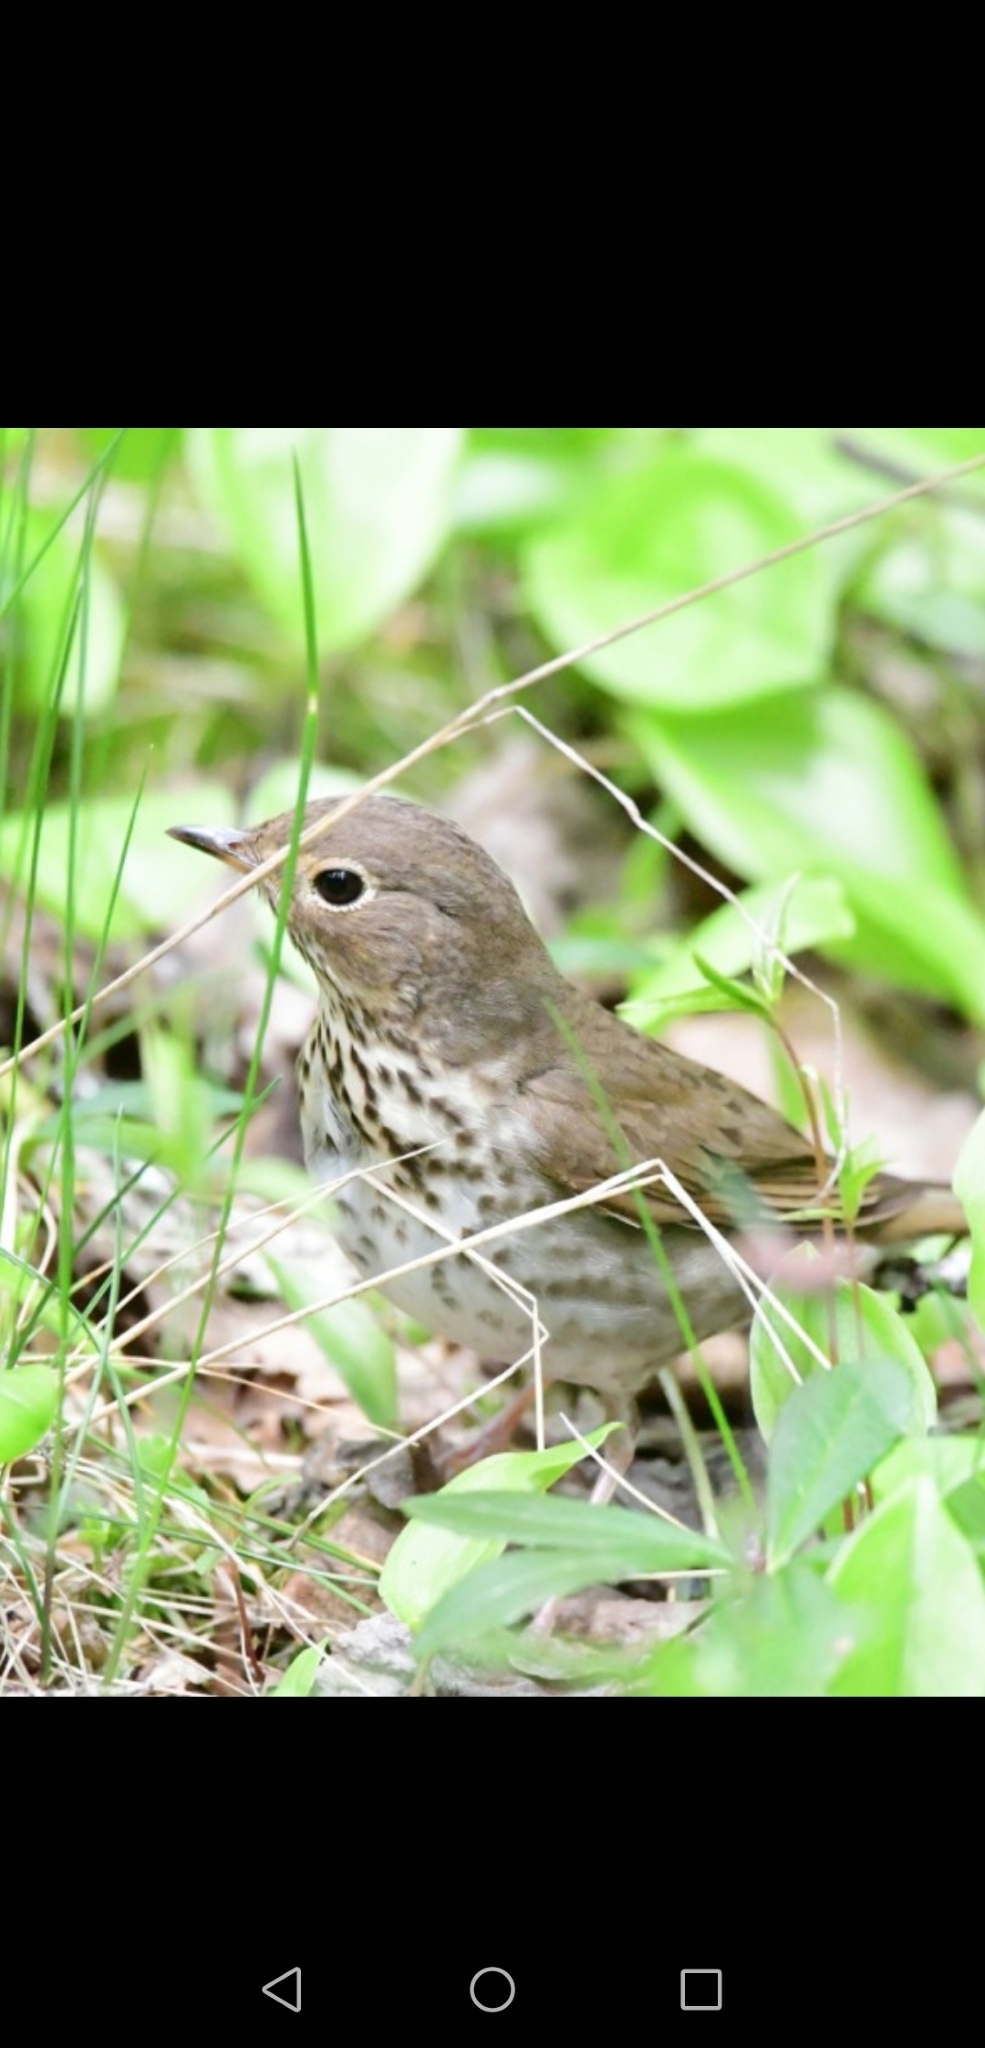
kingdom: Animalia
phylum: Chordata
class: Aves
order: Passeriformes
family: Turdidae
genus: Catharus
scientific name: Catharus ustulatus
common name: Swainson's thrush
